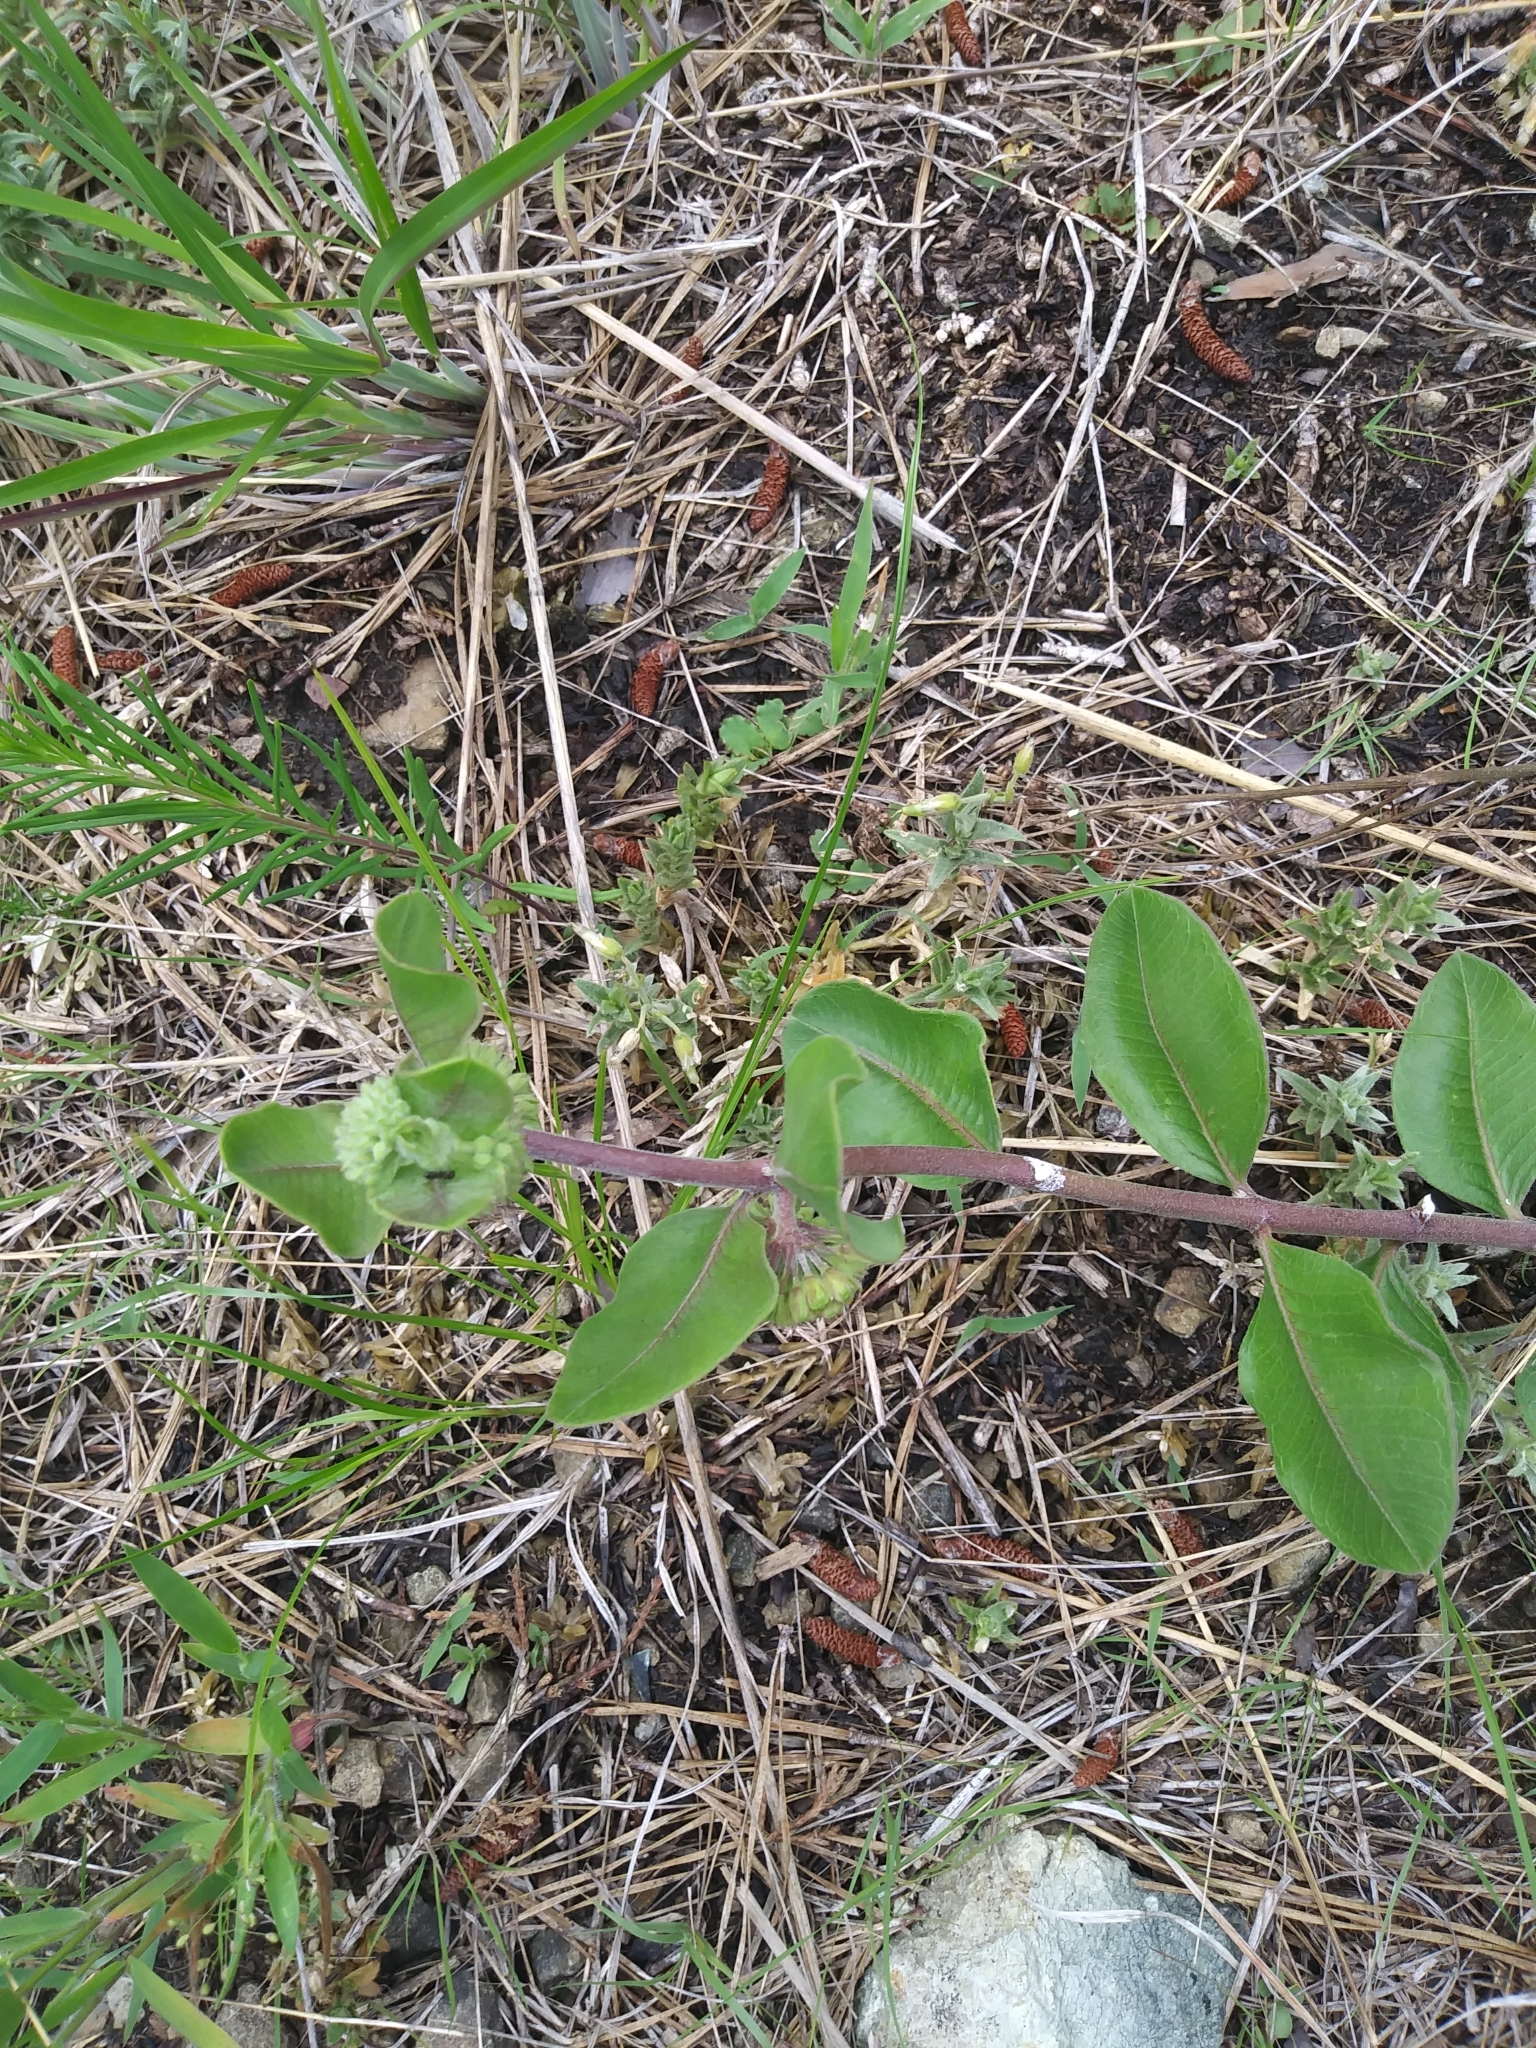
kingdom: Plantae
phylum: Tracheophyta
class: Magnoliopsida
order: Gentianales
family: Apocynaceae
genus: Asclepias
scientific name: Asclepias viridiflora
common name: Green comet milkweed
